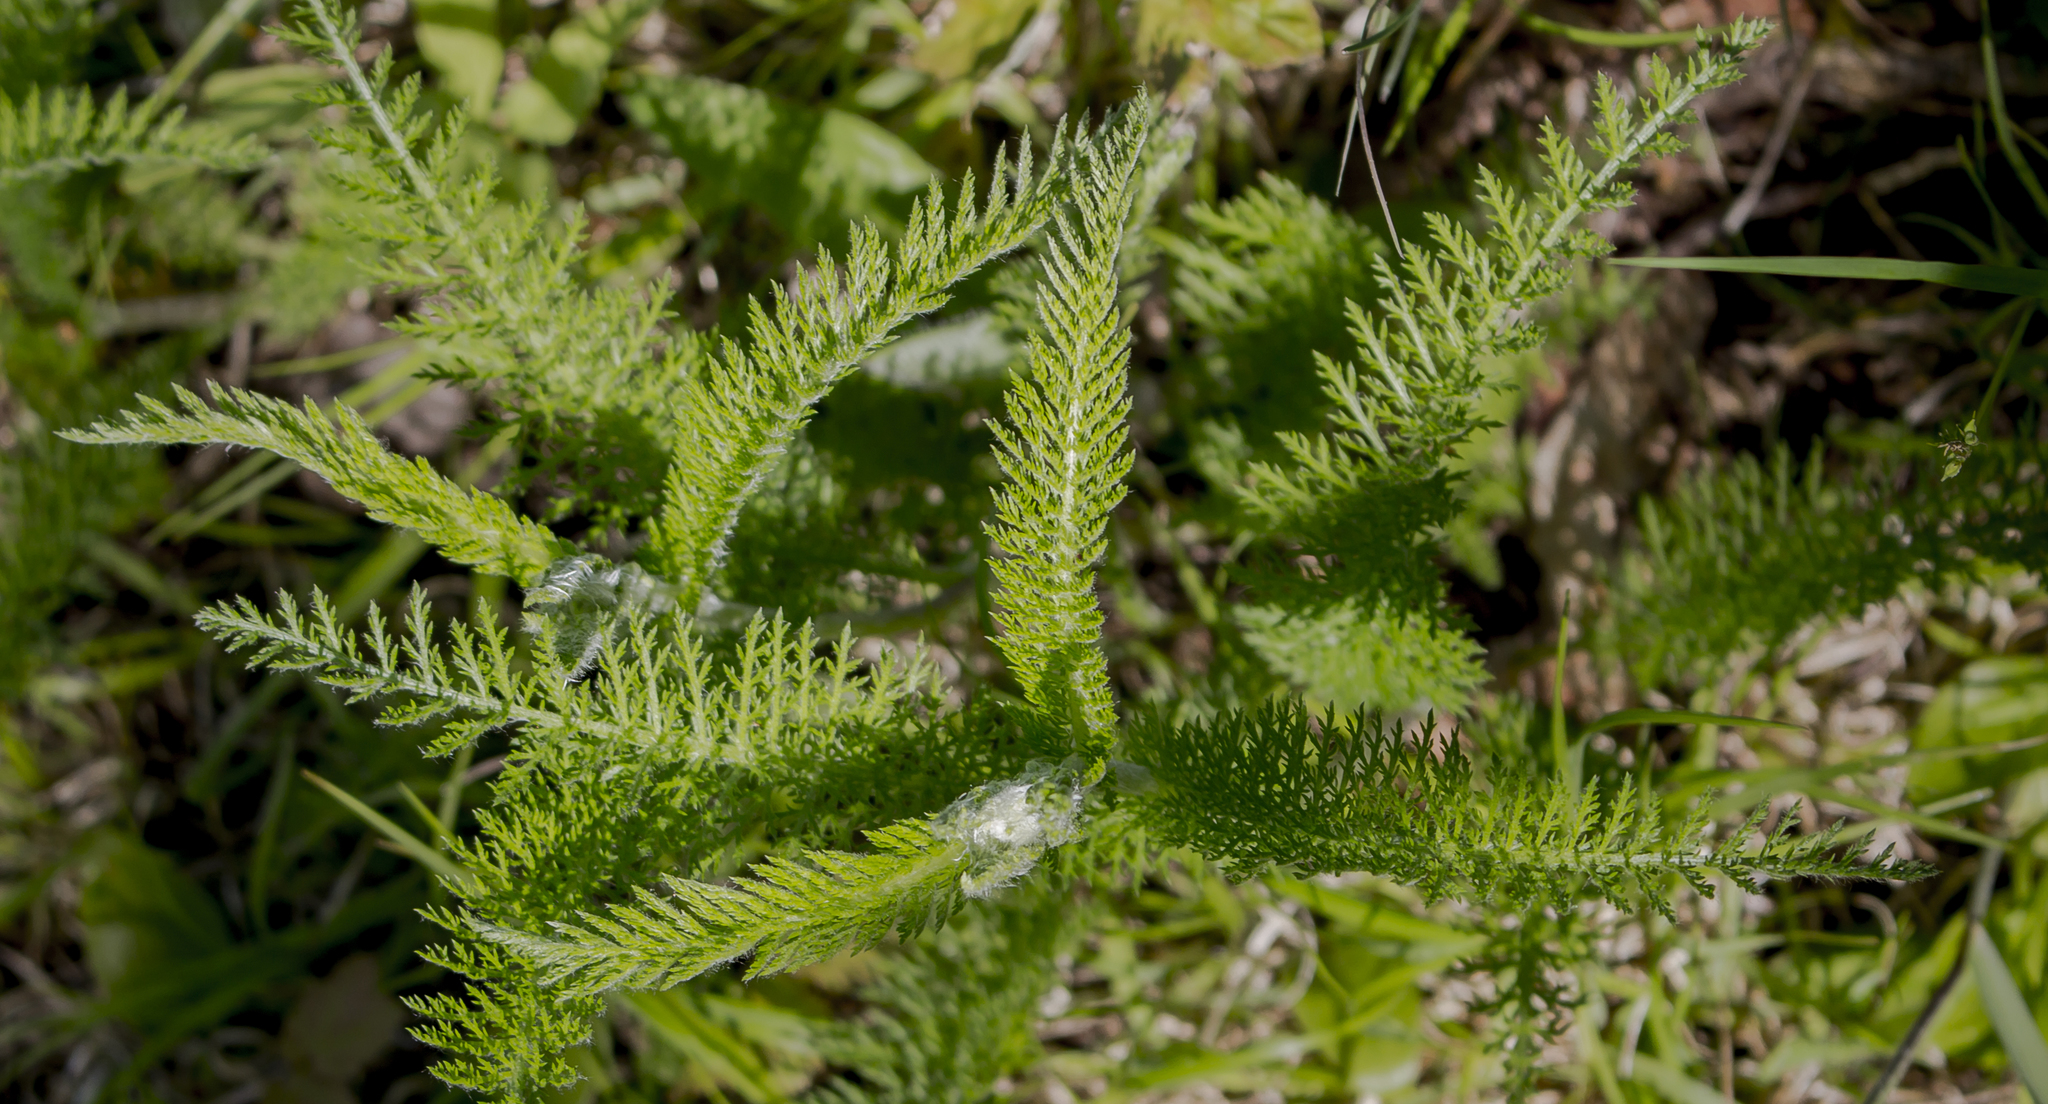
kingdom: Plantae
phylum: Tracheophyta
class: Magnoliopsida
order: Asterales
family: Asteraceae
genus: Achillea
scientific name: Achillea millefolium
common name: Yarrow
